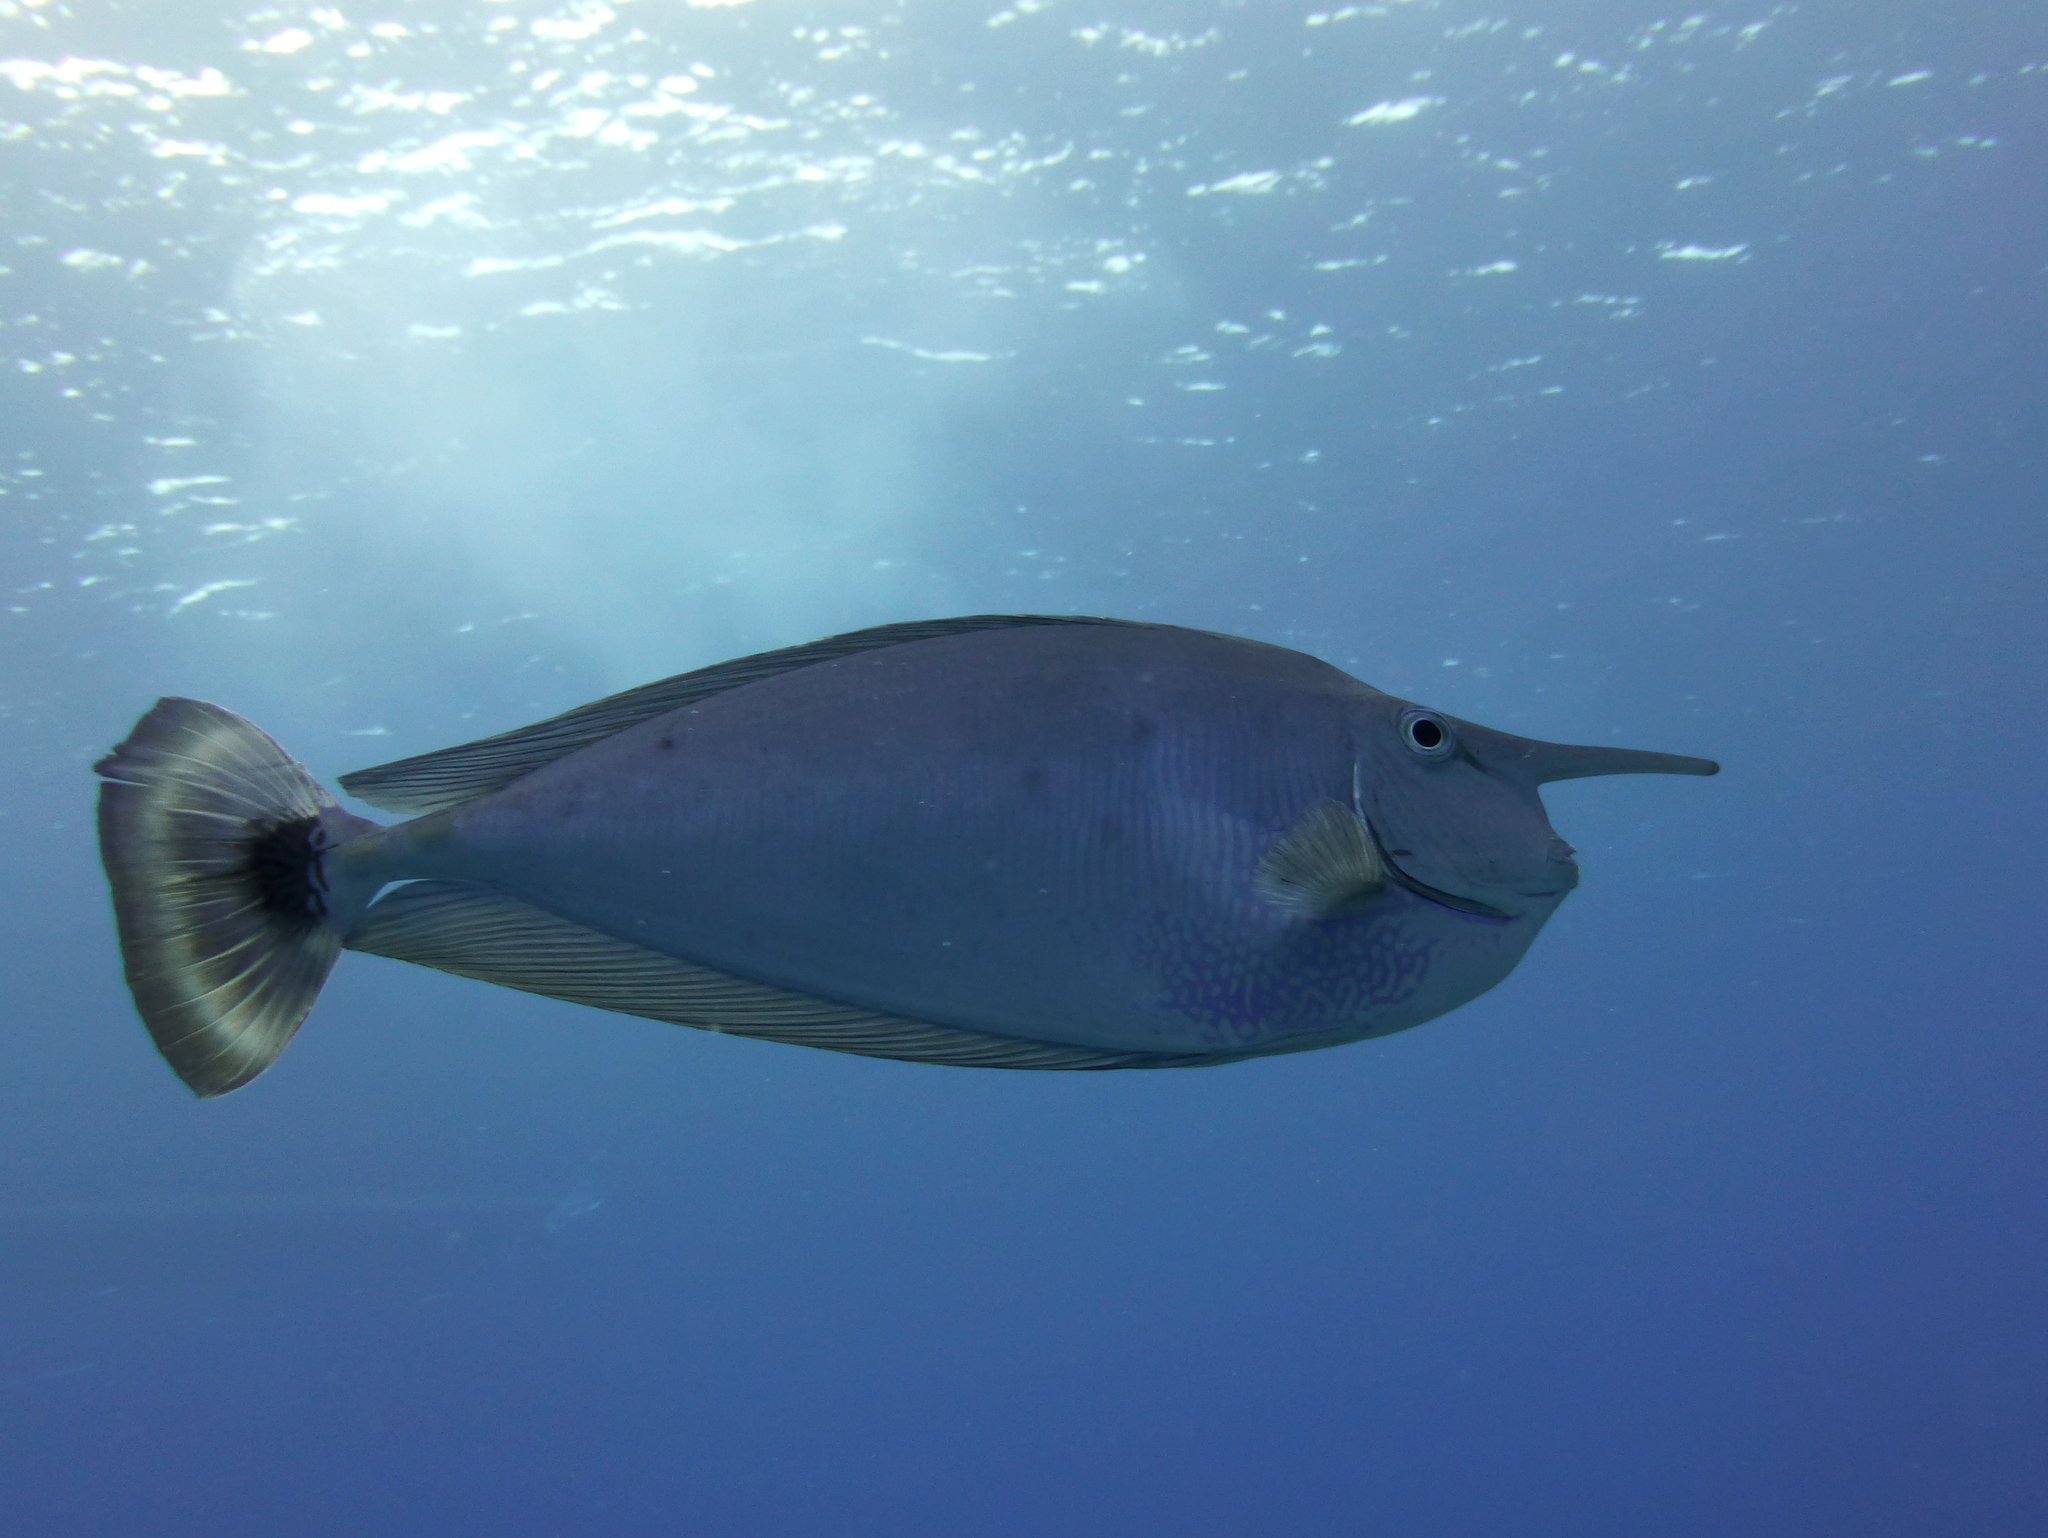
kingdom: Animalia
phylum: Chordata
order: Perciformes
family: Acanthuridae
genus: Naso
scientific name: Naso brevirostris
